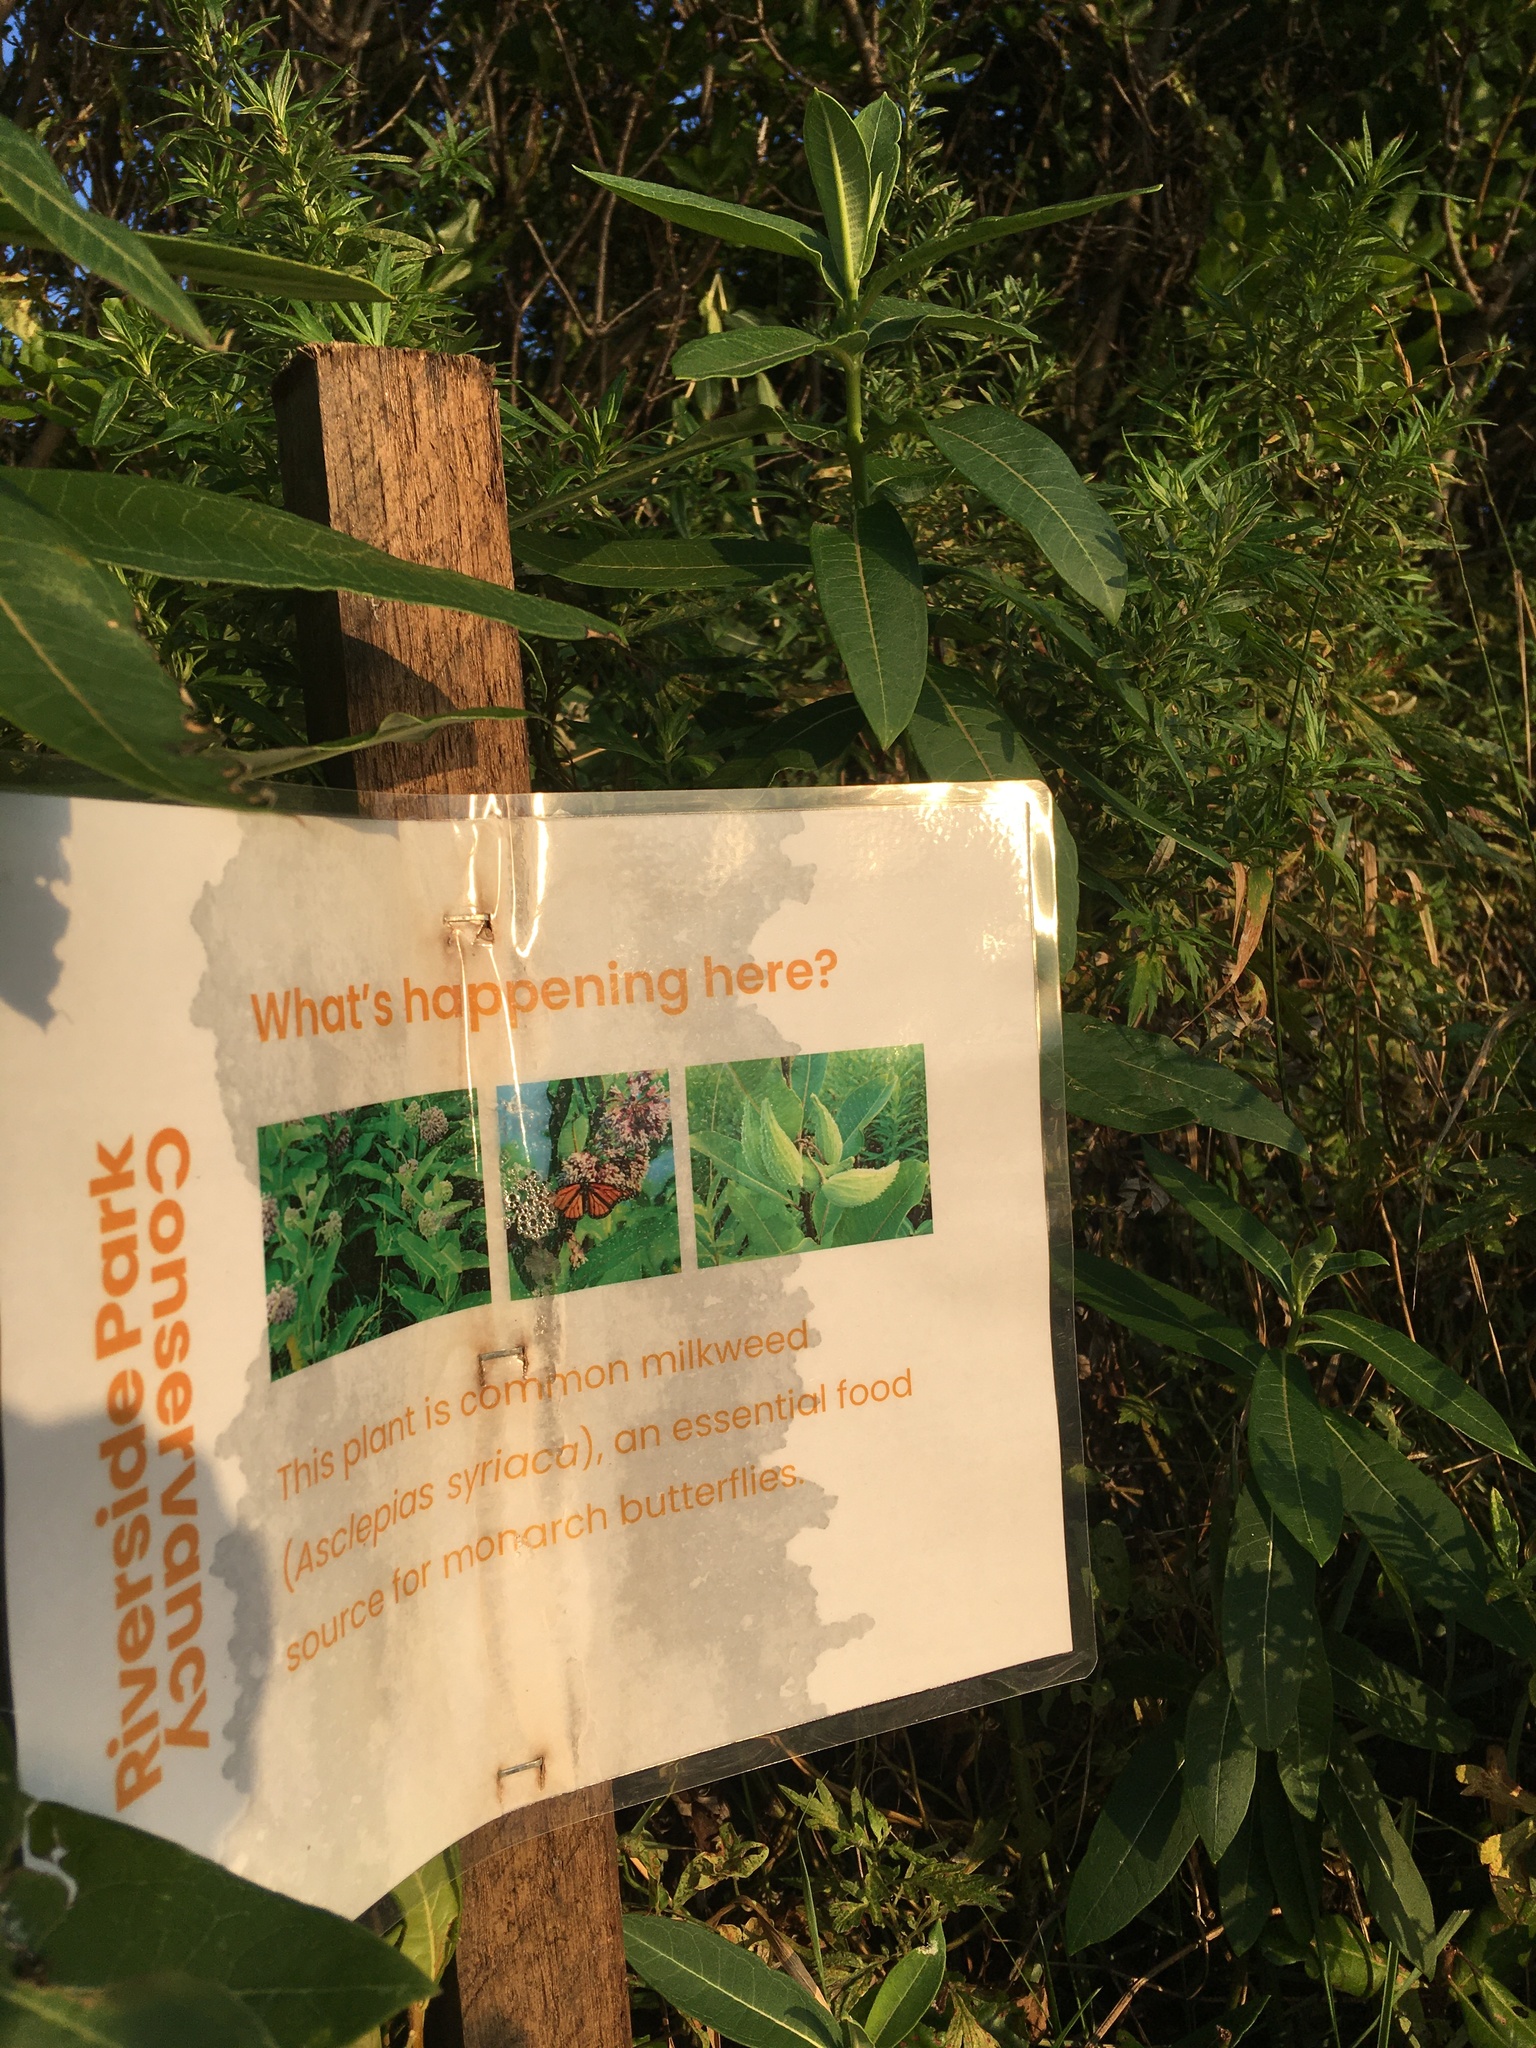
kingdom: Plantae
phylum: Tracheophyta
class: Magnoliopsida
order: Gentianales
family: Apocynaceae
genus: Asclepias
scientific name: Asclepias syriaca
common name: Common milkweed
